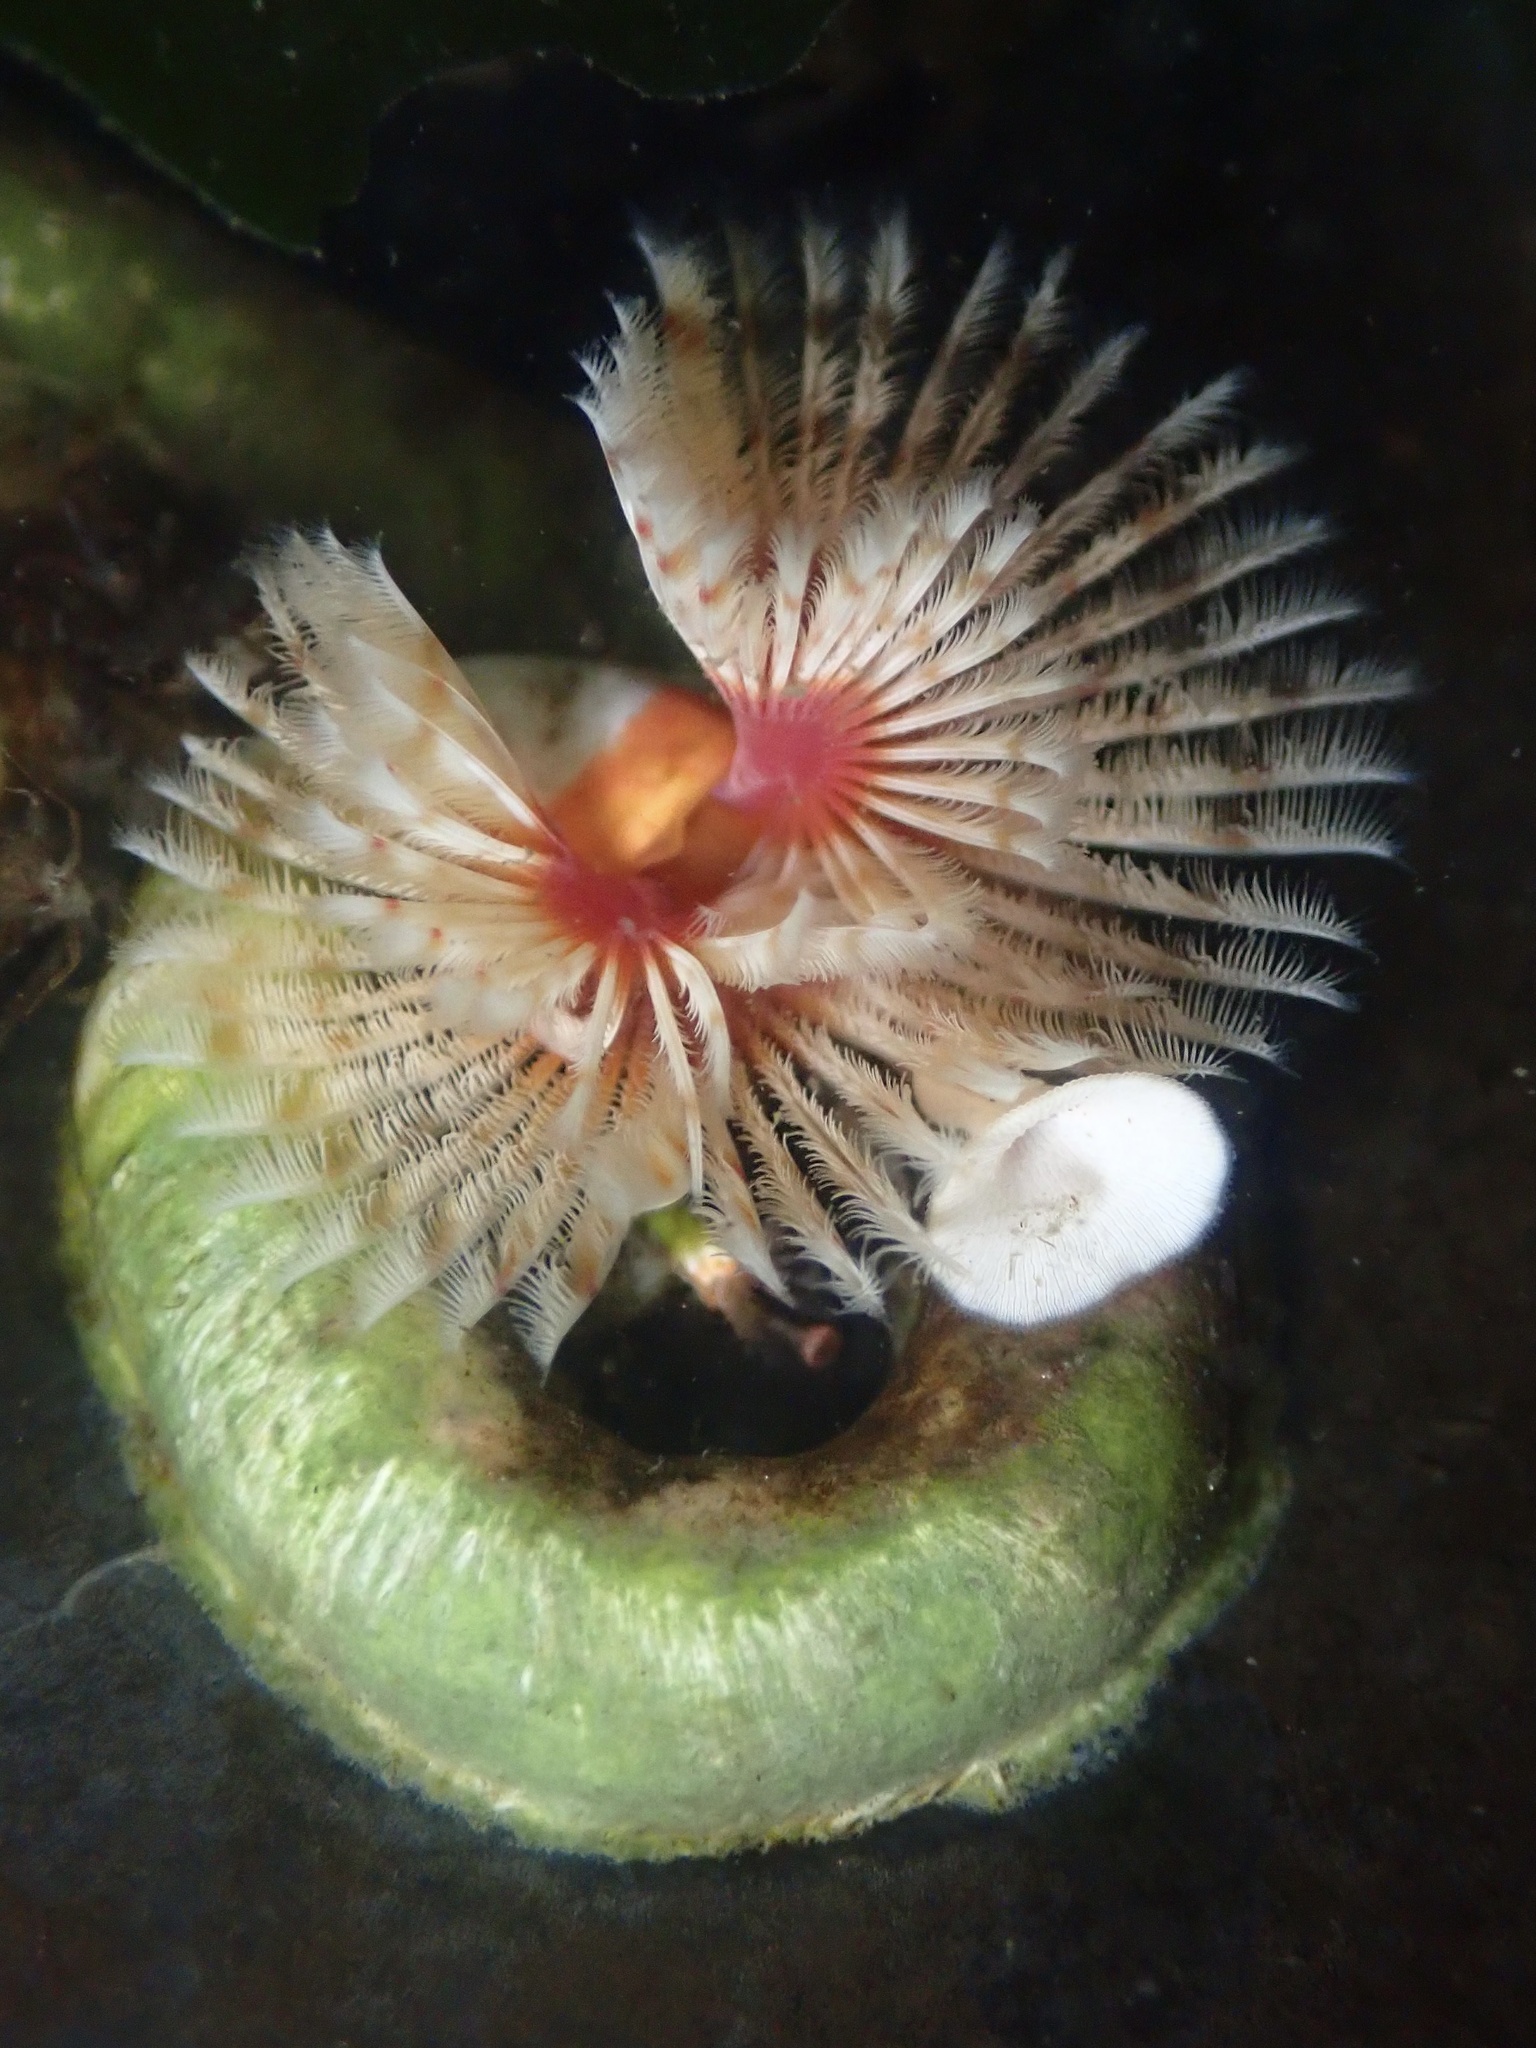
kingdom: Animalia
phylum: Annelida
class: Polychaeta
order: Sabellida
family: Serpulidae
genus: Serpula
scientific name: Serpula columbiana
